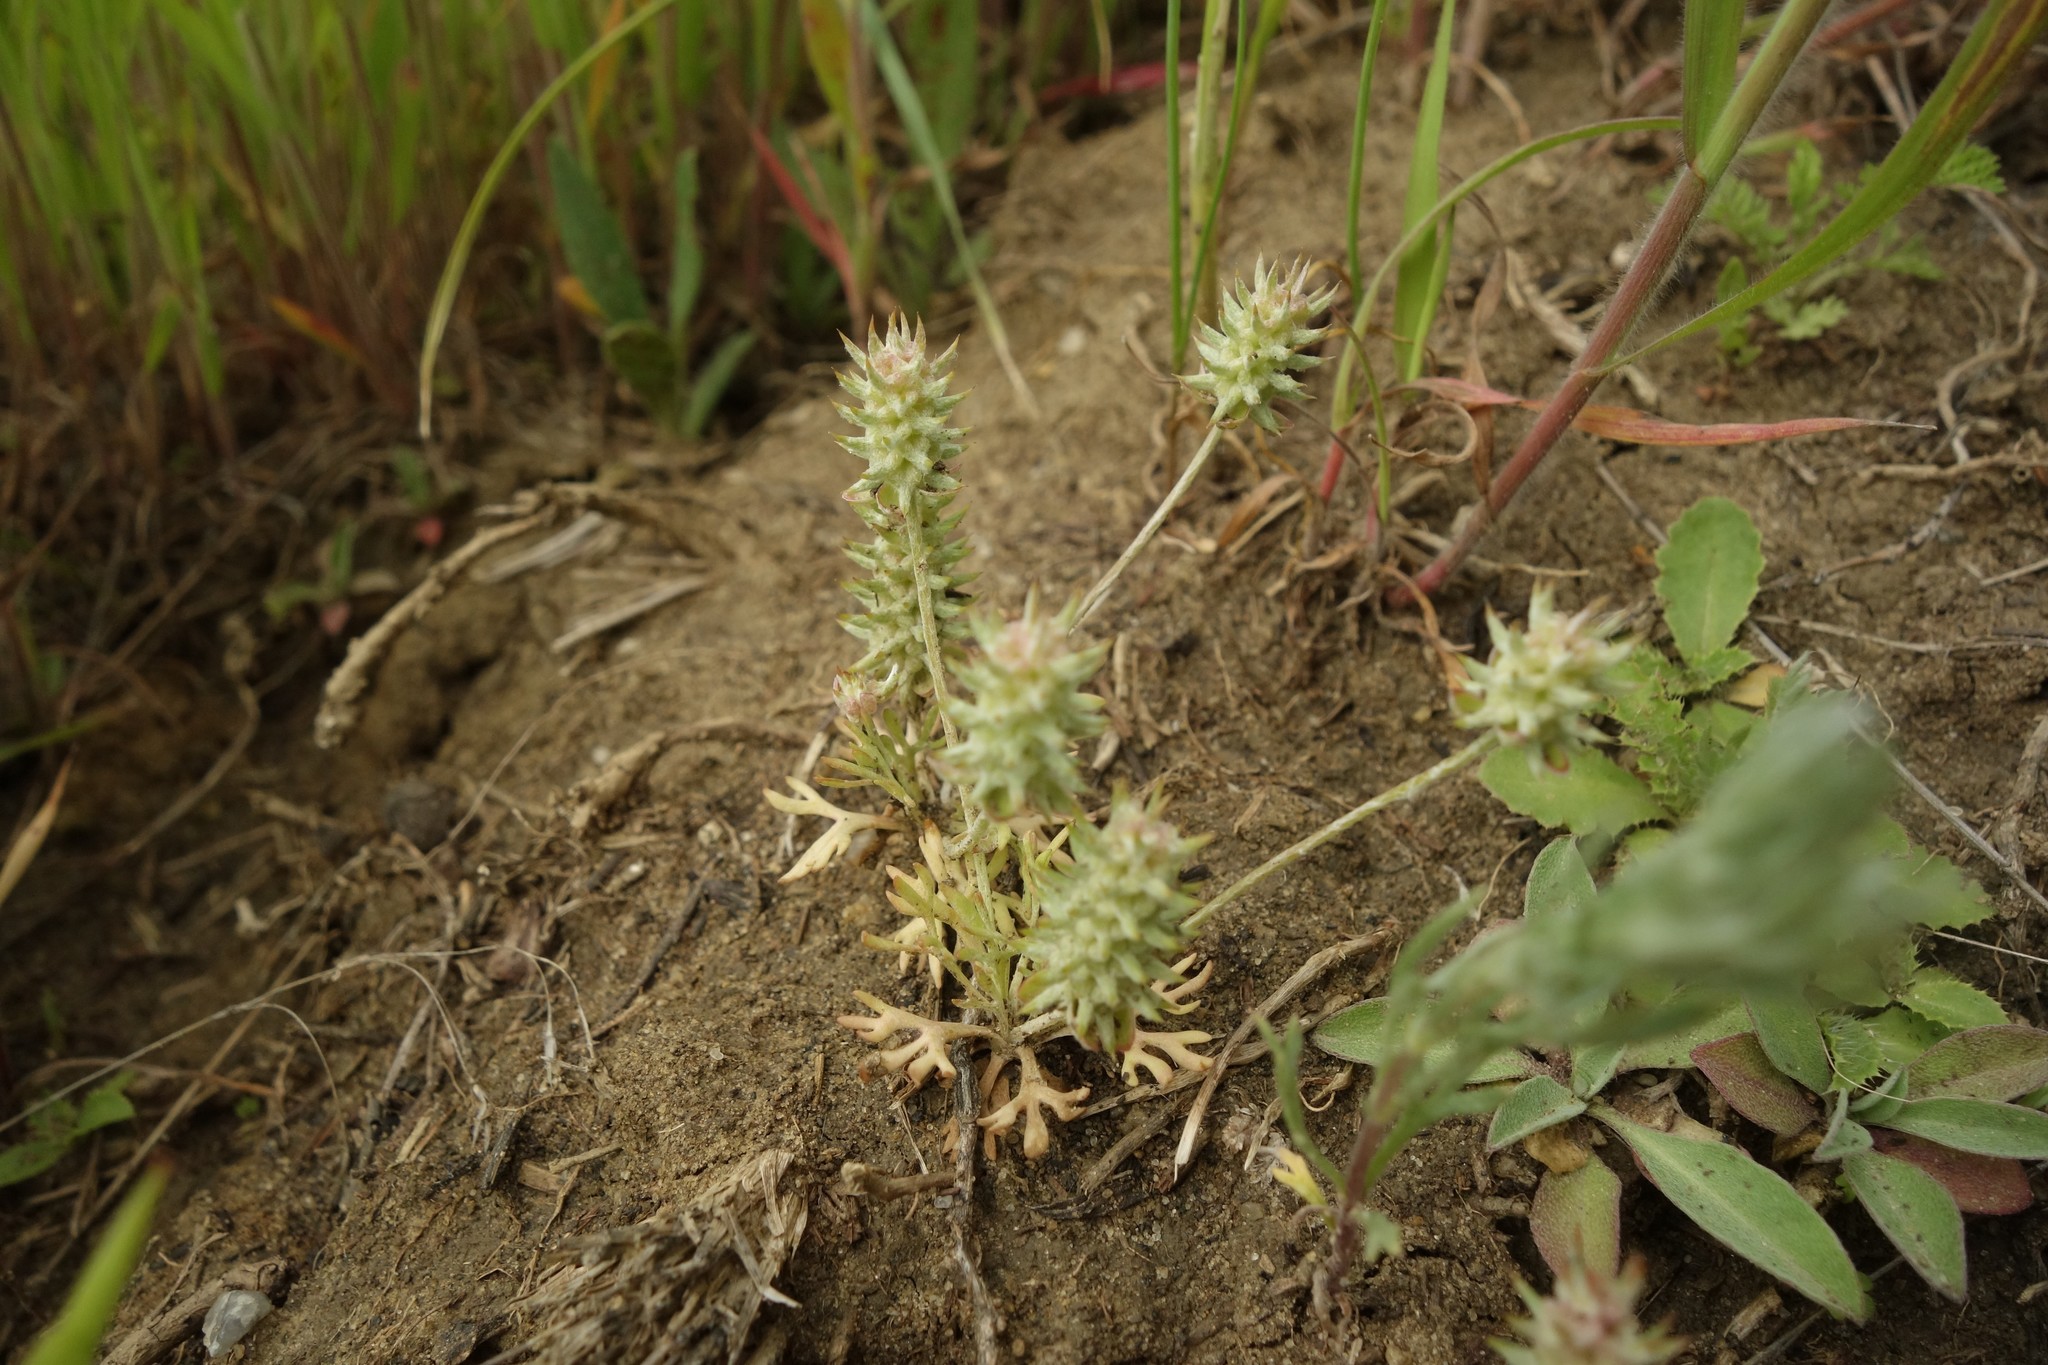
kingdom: Plantae
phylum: Tracheophyta
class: Magnoliopsida
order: Ranunculales
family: Ranunculaceae
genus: Ceratocephala
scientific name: Ceratocephala orthoceras
